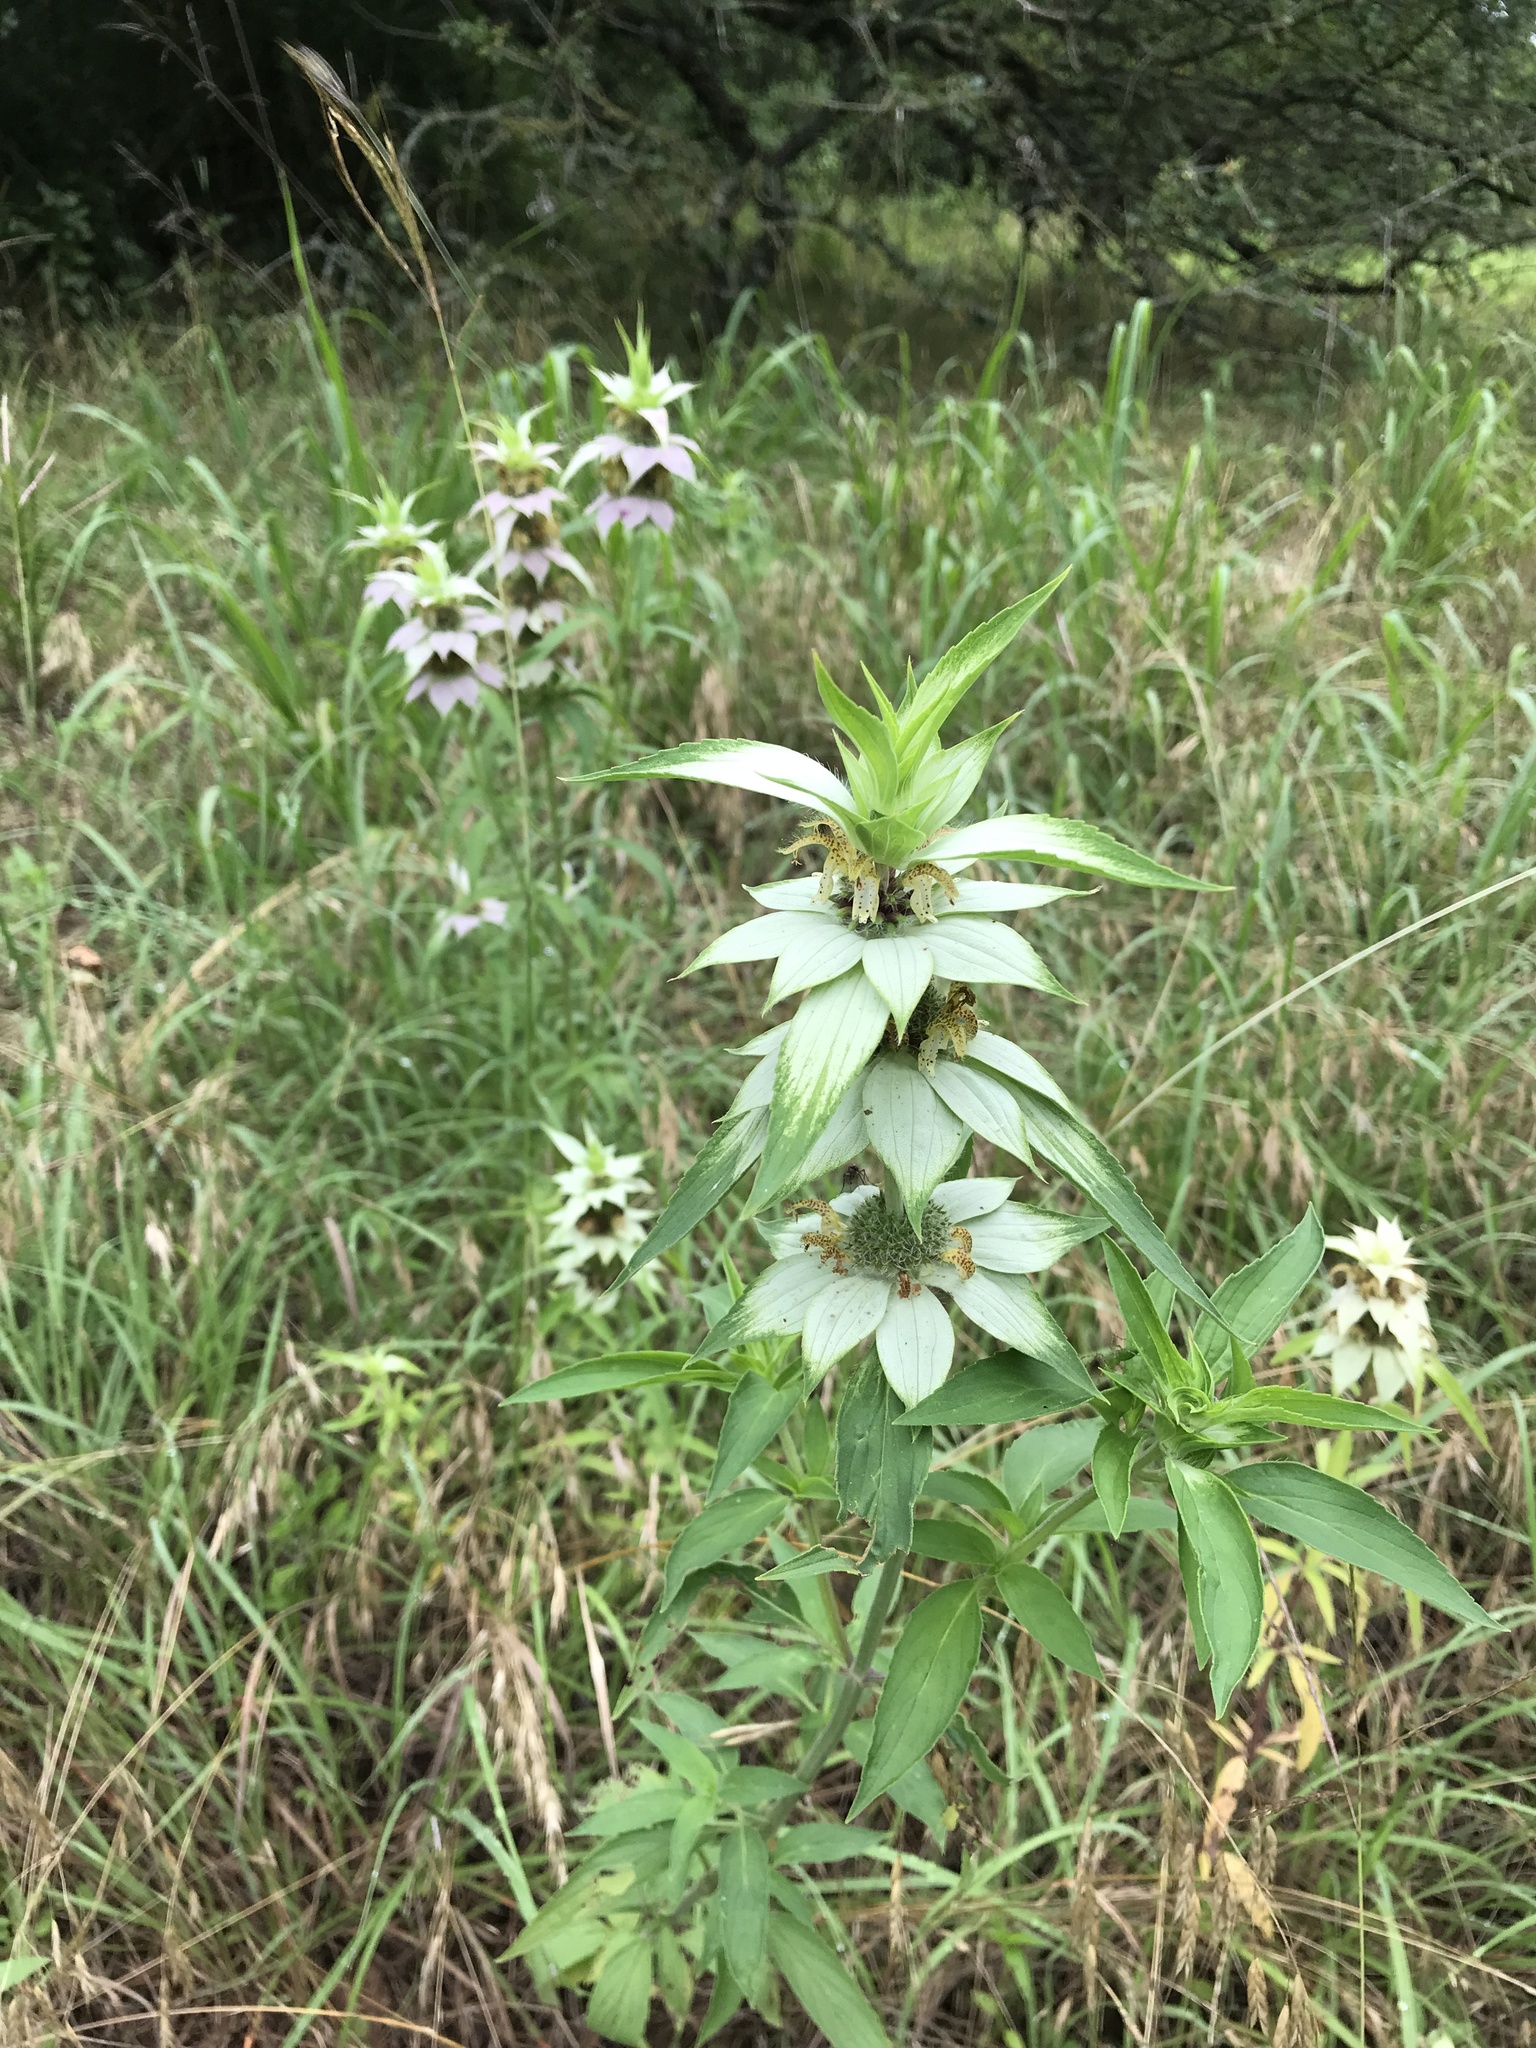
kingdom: Plantae
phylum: Tracheophyta
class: Magnoliopsida
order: Lamiales
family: Lamiaceae
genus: Monarda
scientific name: Monarda punctata
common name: Dotted monarda
